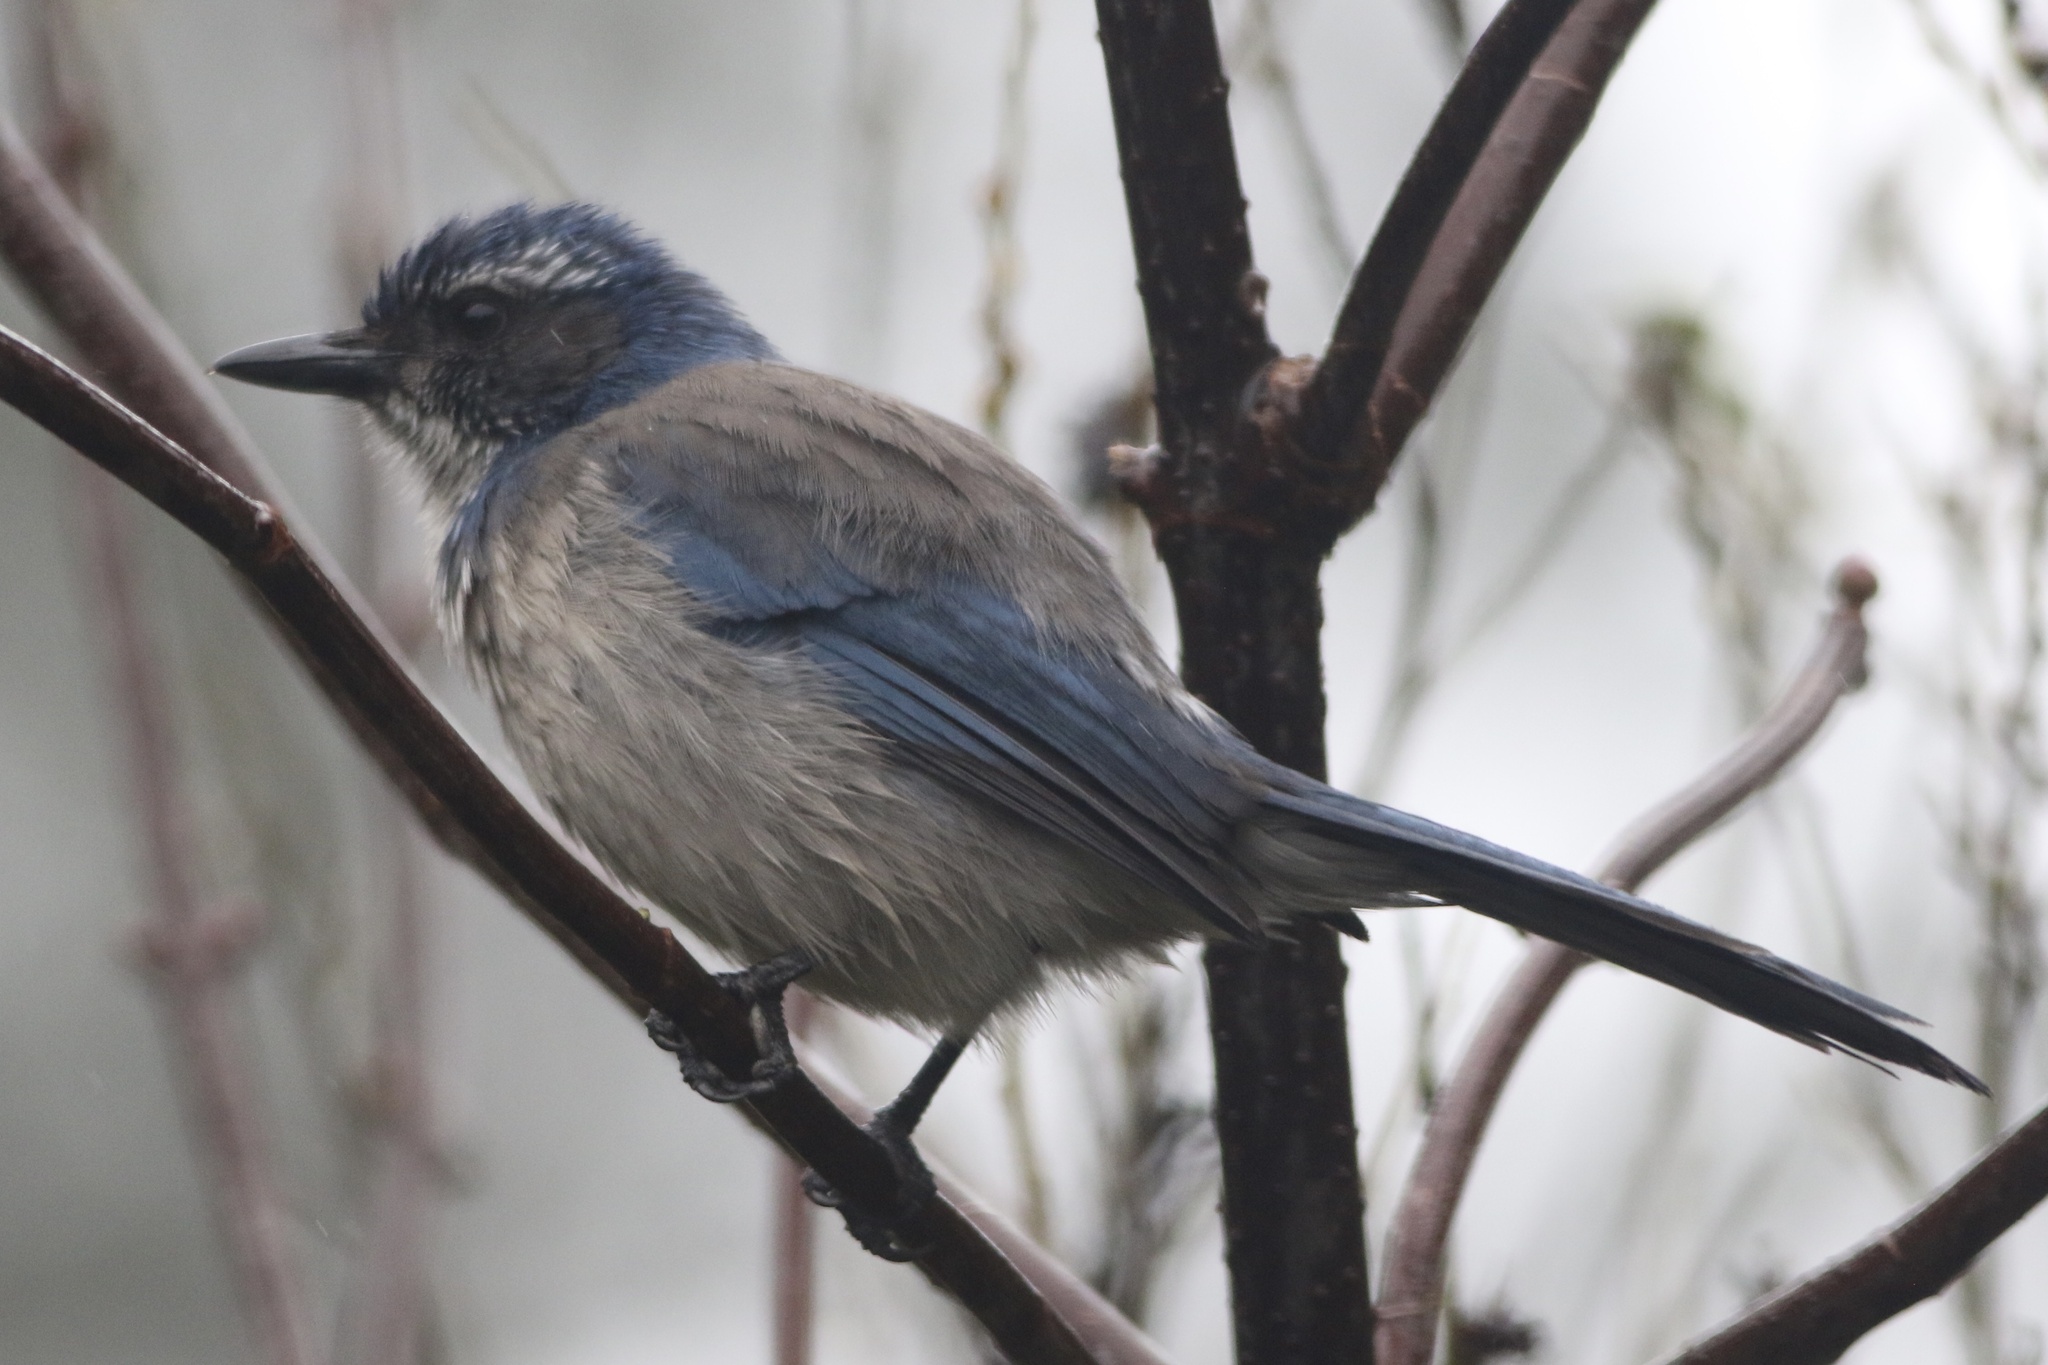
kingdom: Animalia
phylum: Chordata
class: Aves
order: Passeriformes
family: Corvidae
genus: Aphelocoma
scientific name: Aphelocoma californica
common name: California scrub-jay
